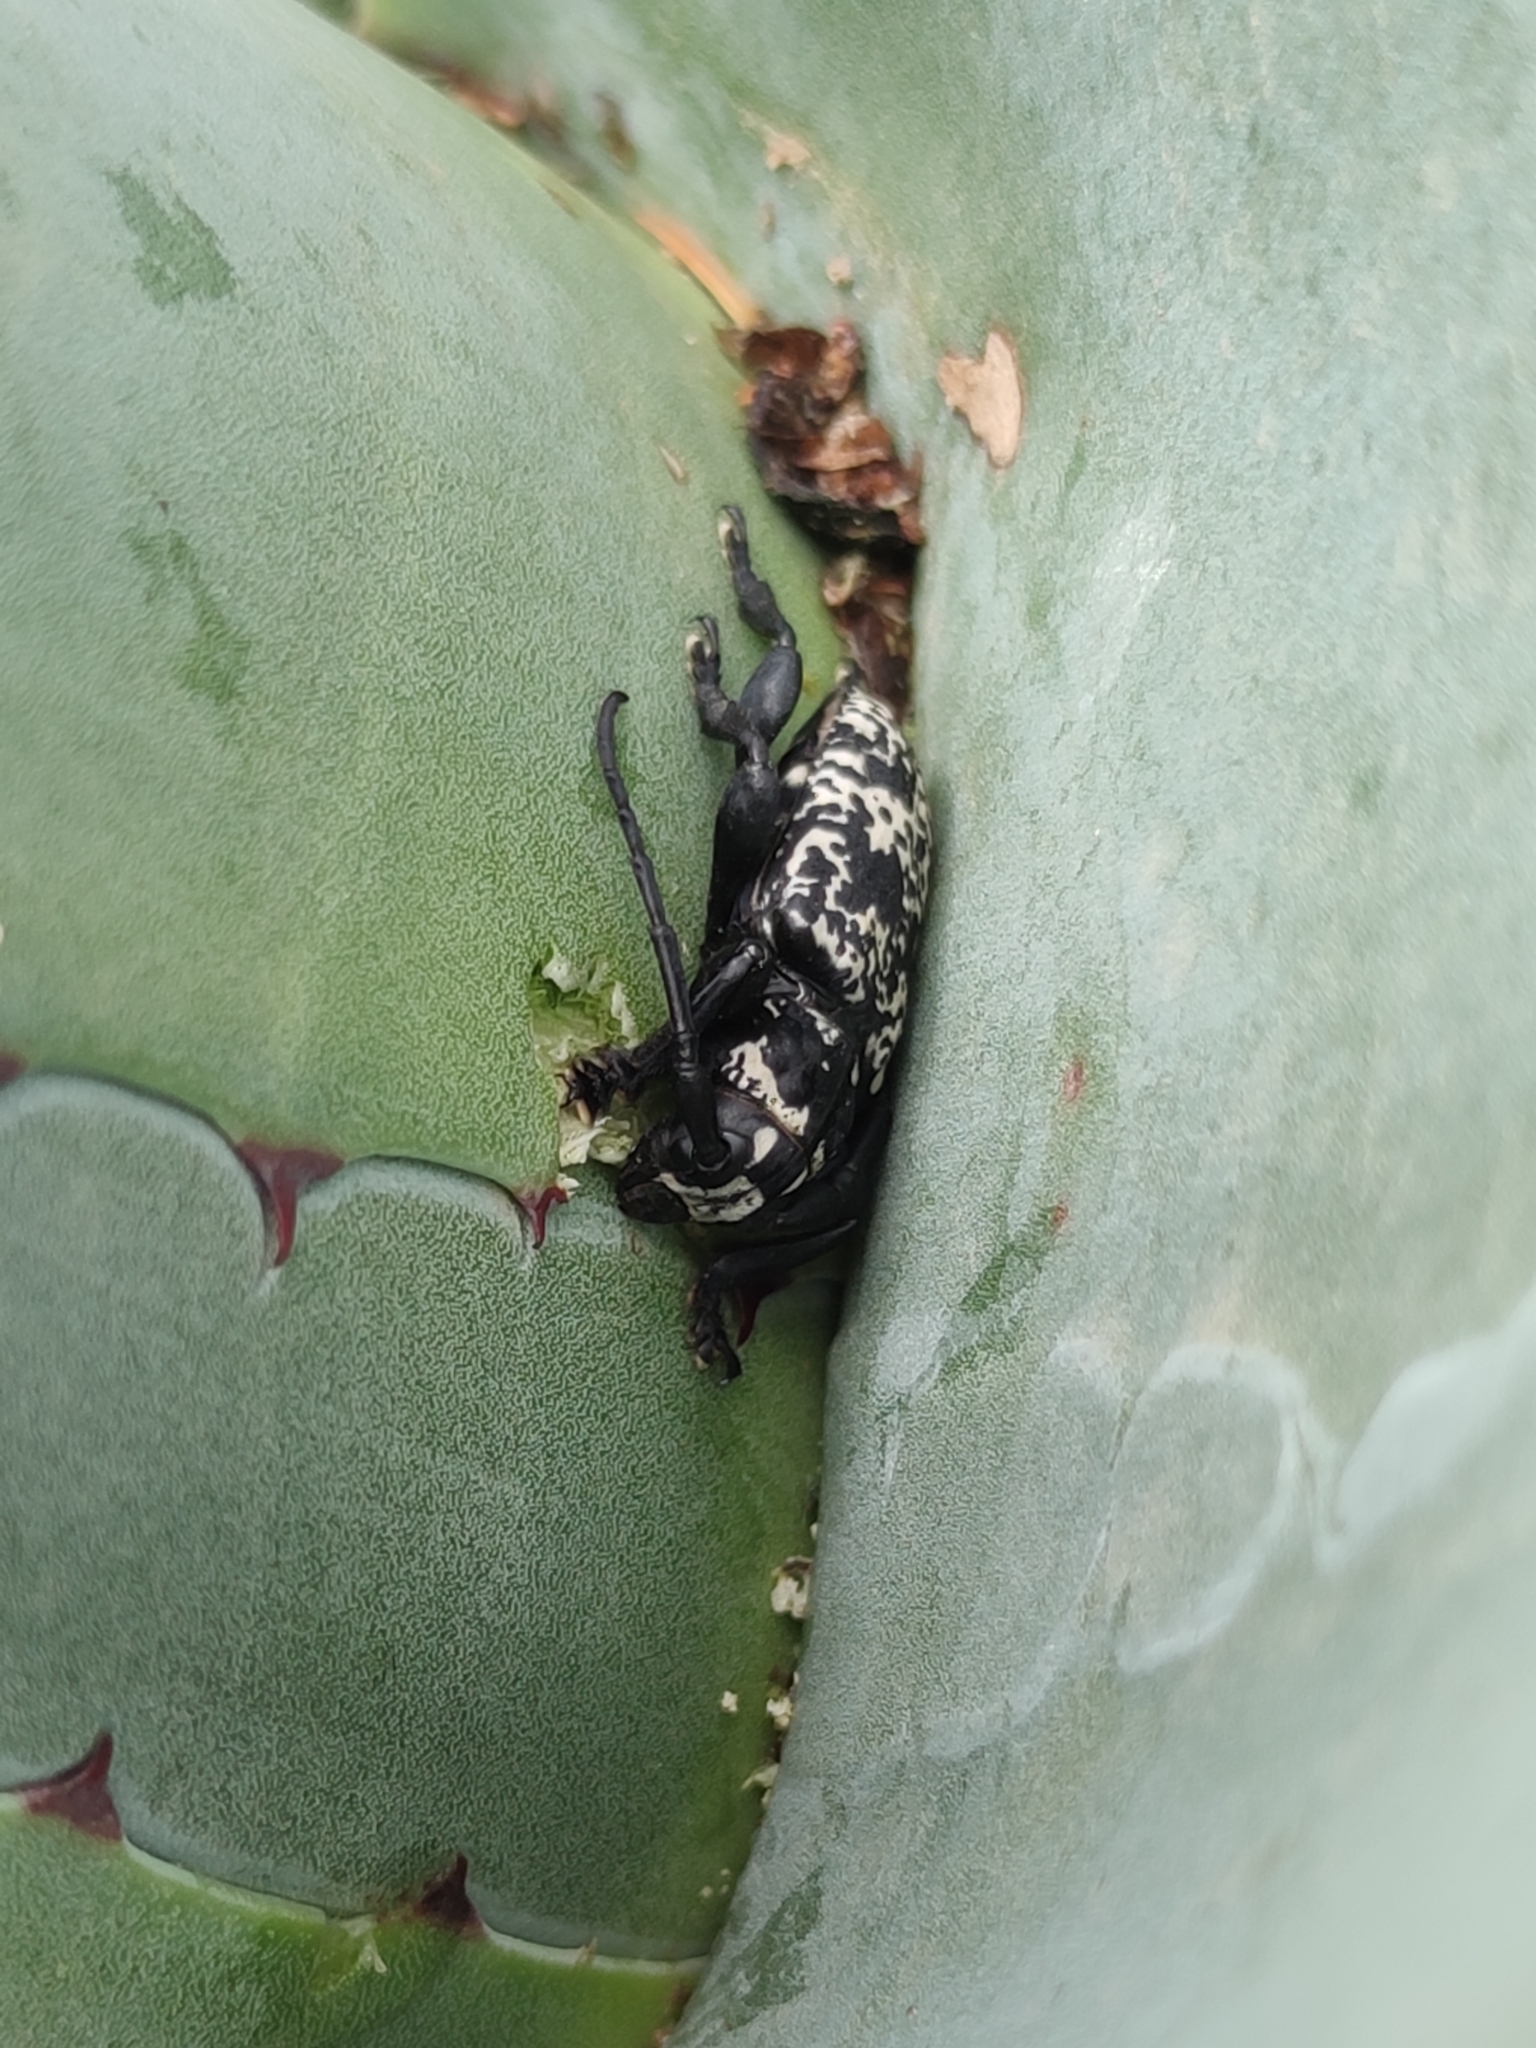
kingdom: Animalia
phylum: Arthropoda
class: Insecta
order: Coleoptera
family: Cerambycidae
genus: Acanthoderes
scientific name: Acanthoderes funeraria
